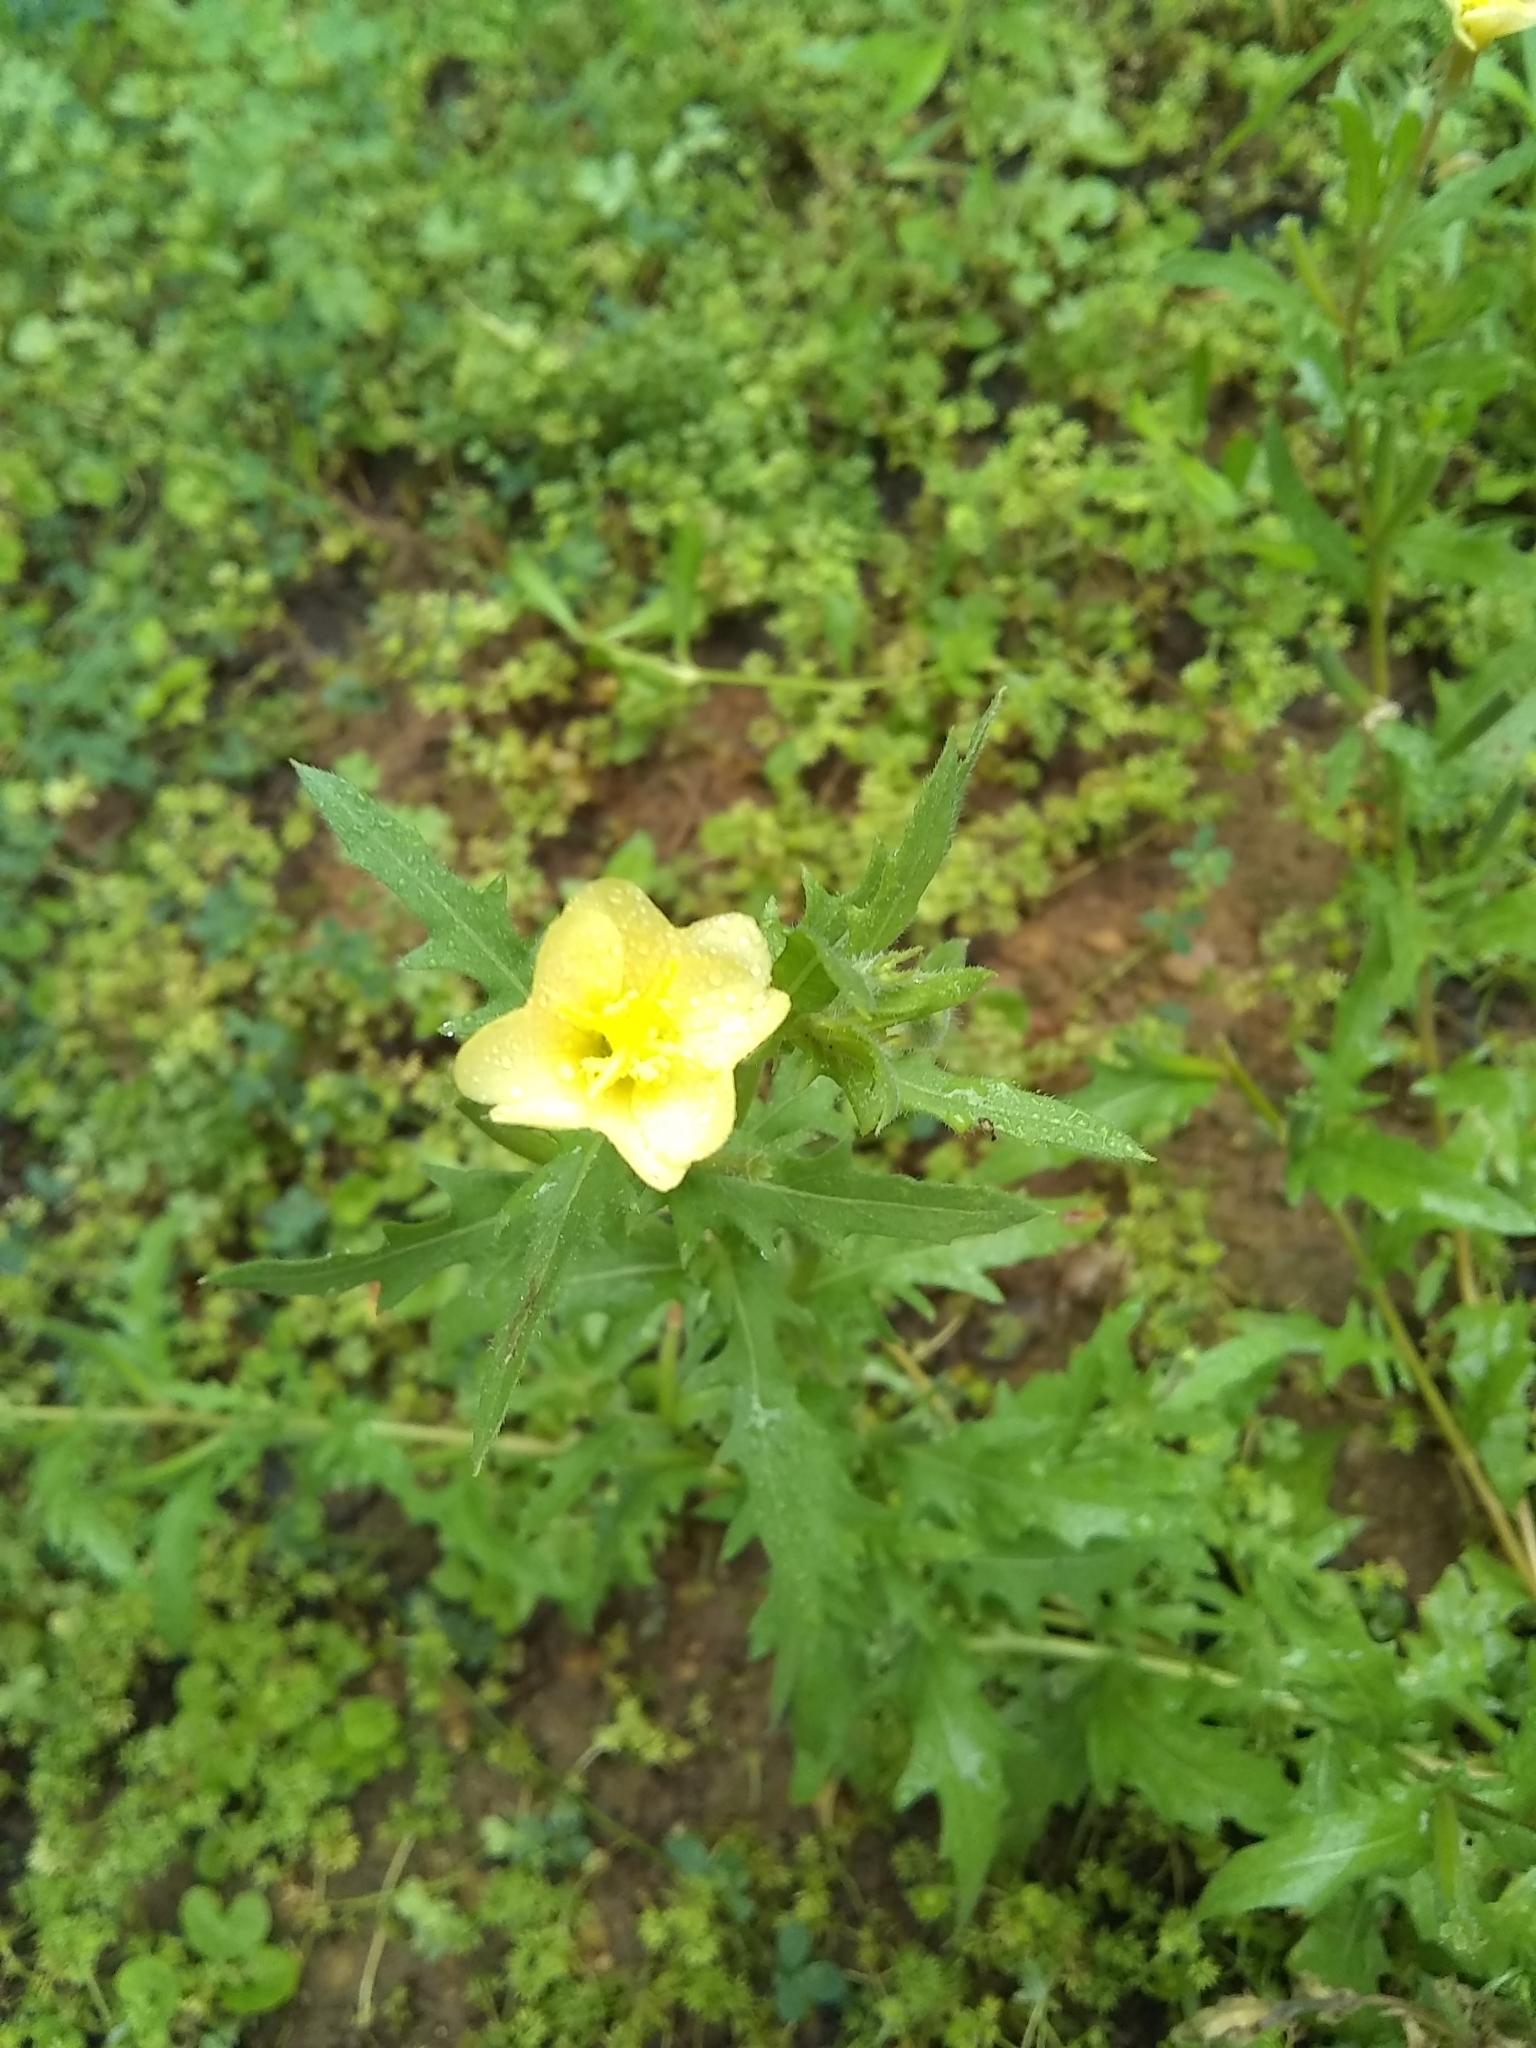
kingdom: Plantae
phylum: Tracheophyta
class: Magnoliopsida
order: Myrtales
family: Onagraceae
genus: Oenothera
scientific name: Oenothera laciniata
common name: Cut-leaved evening-primrose
